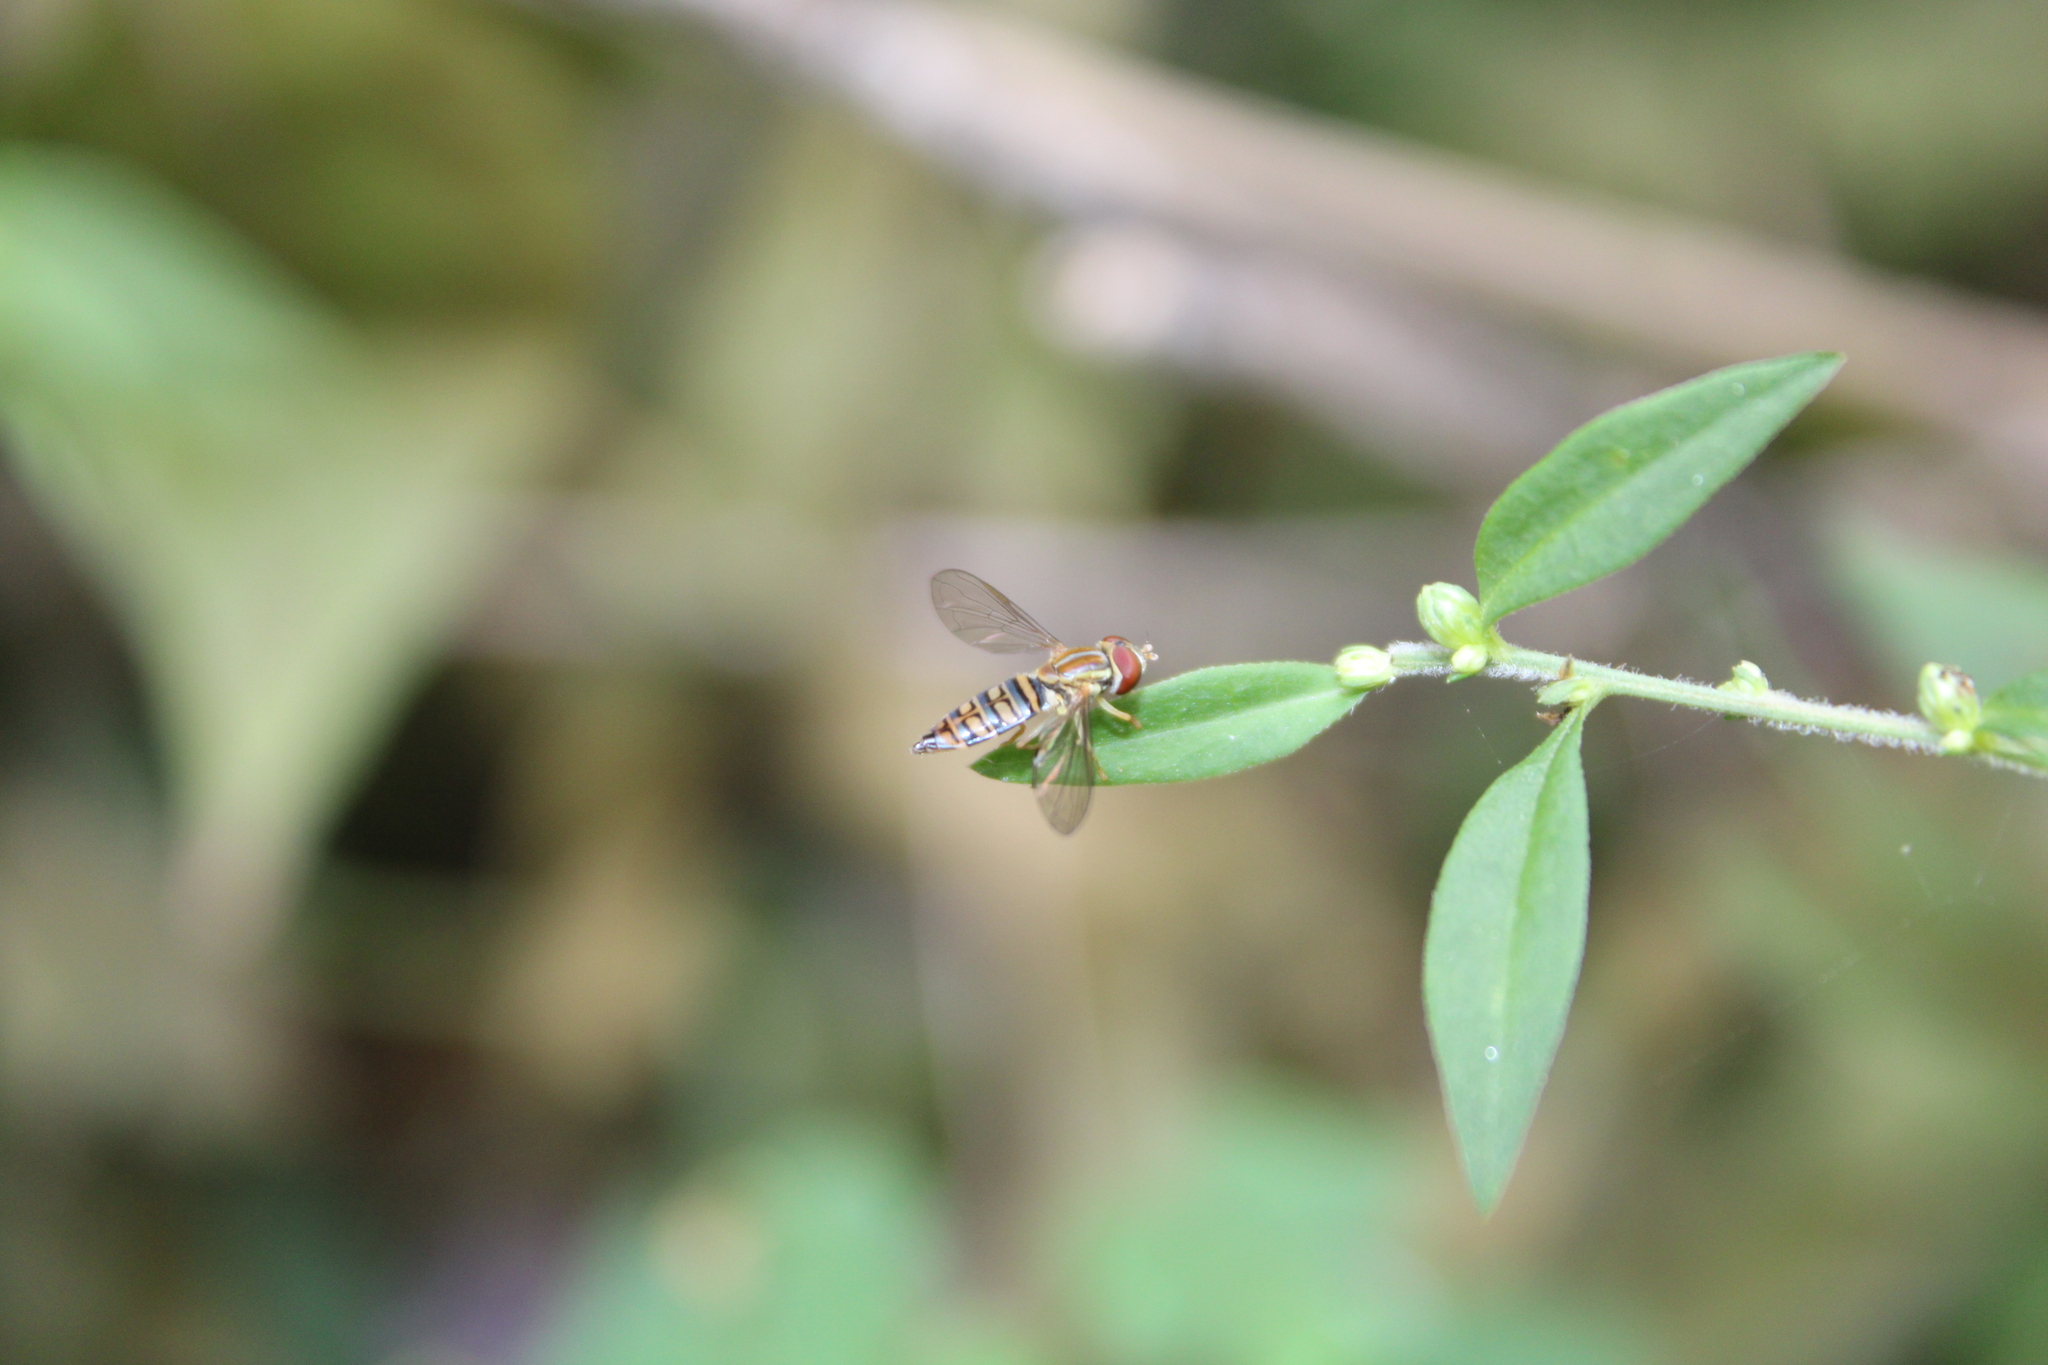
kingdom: Animalia
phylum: Arthropoda
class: Insecta
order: Diptera
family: Syrphidae
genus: Toxomerus
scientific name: Toxomerus politus
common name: Maize calligrapher
